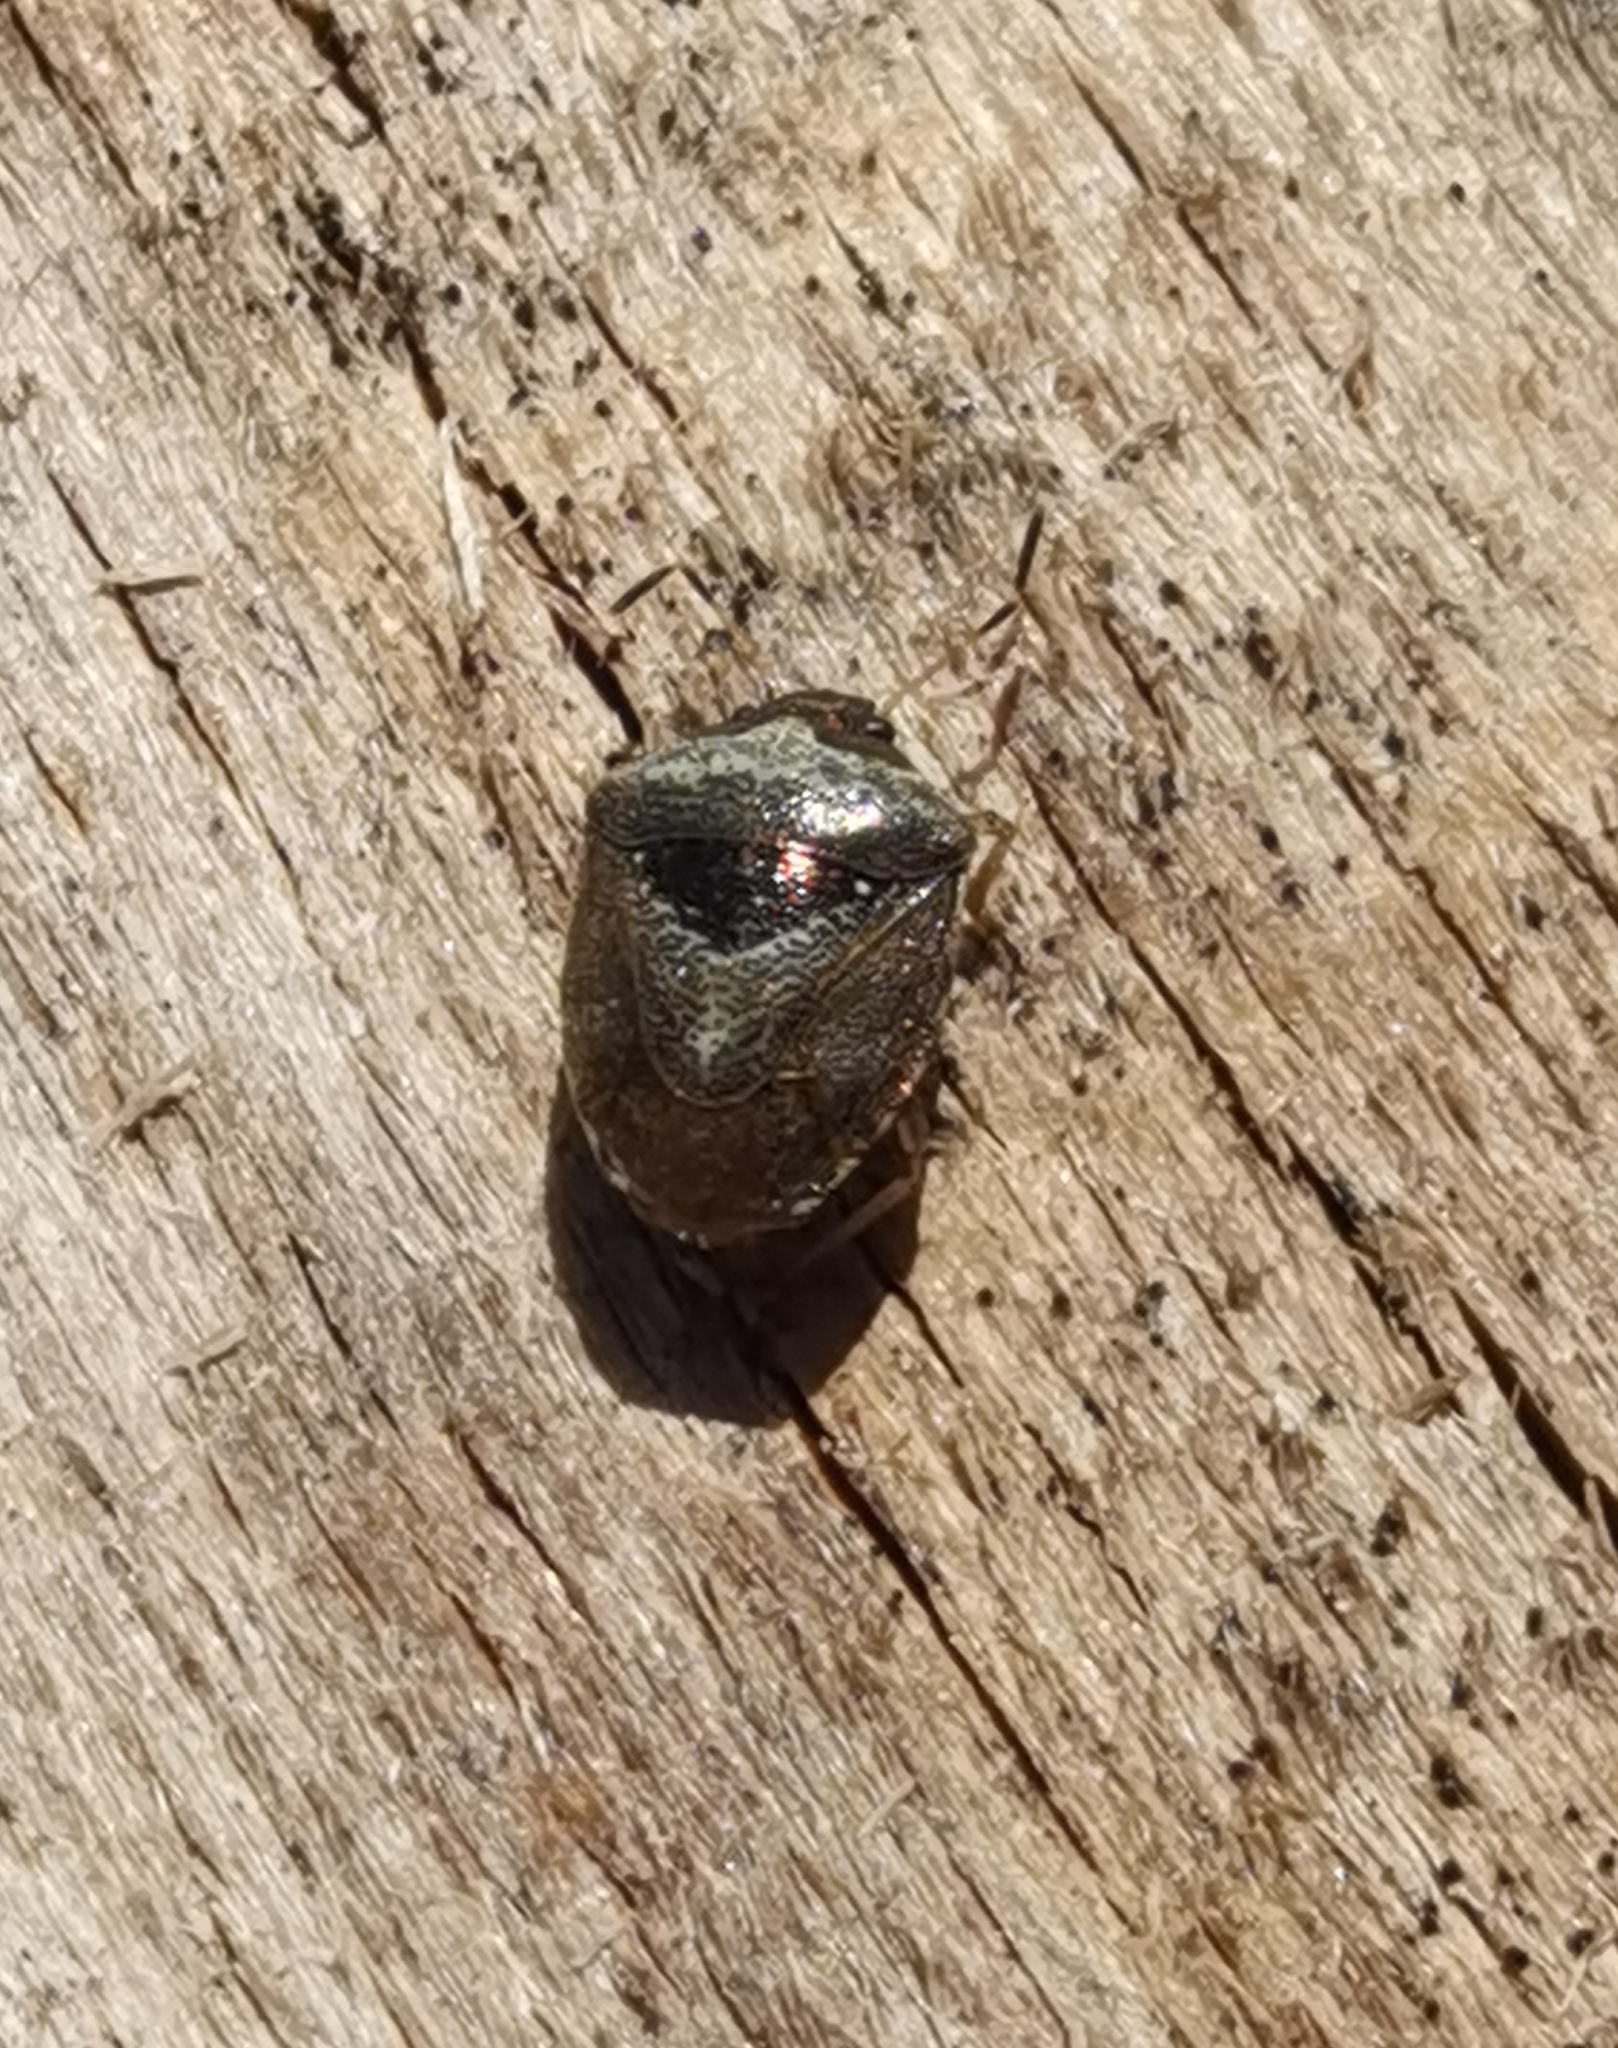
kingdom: Animalia
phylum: Arthropoda
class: Insecta
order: Hemiptera
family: Pentatomidae
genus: Eysarcoris
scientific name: Eysarcoris venustissimus
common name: Woundwort shieldbug
